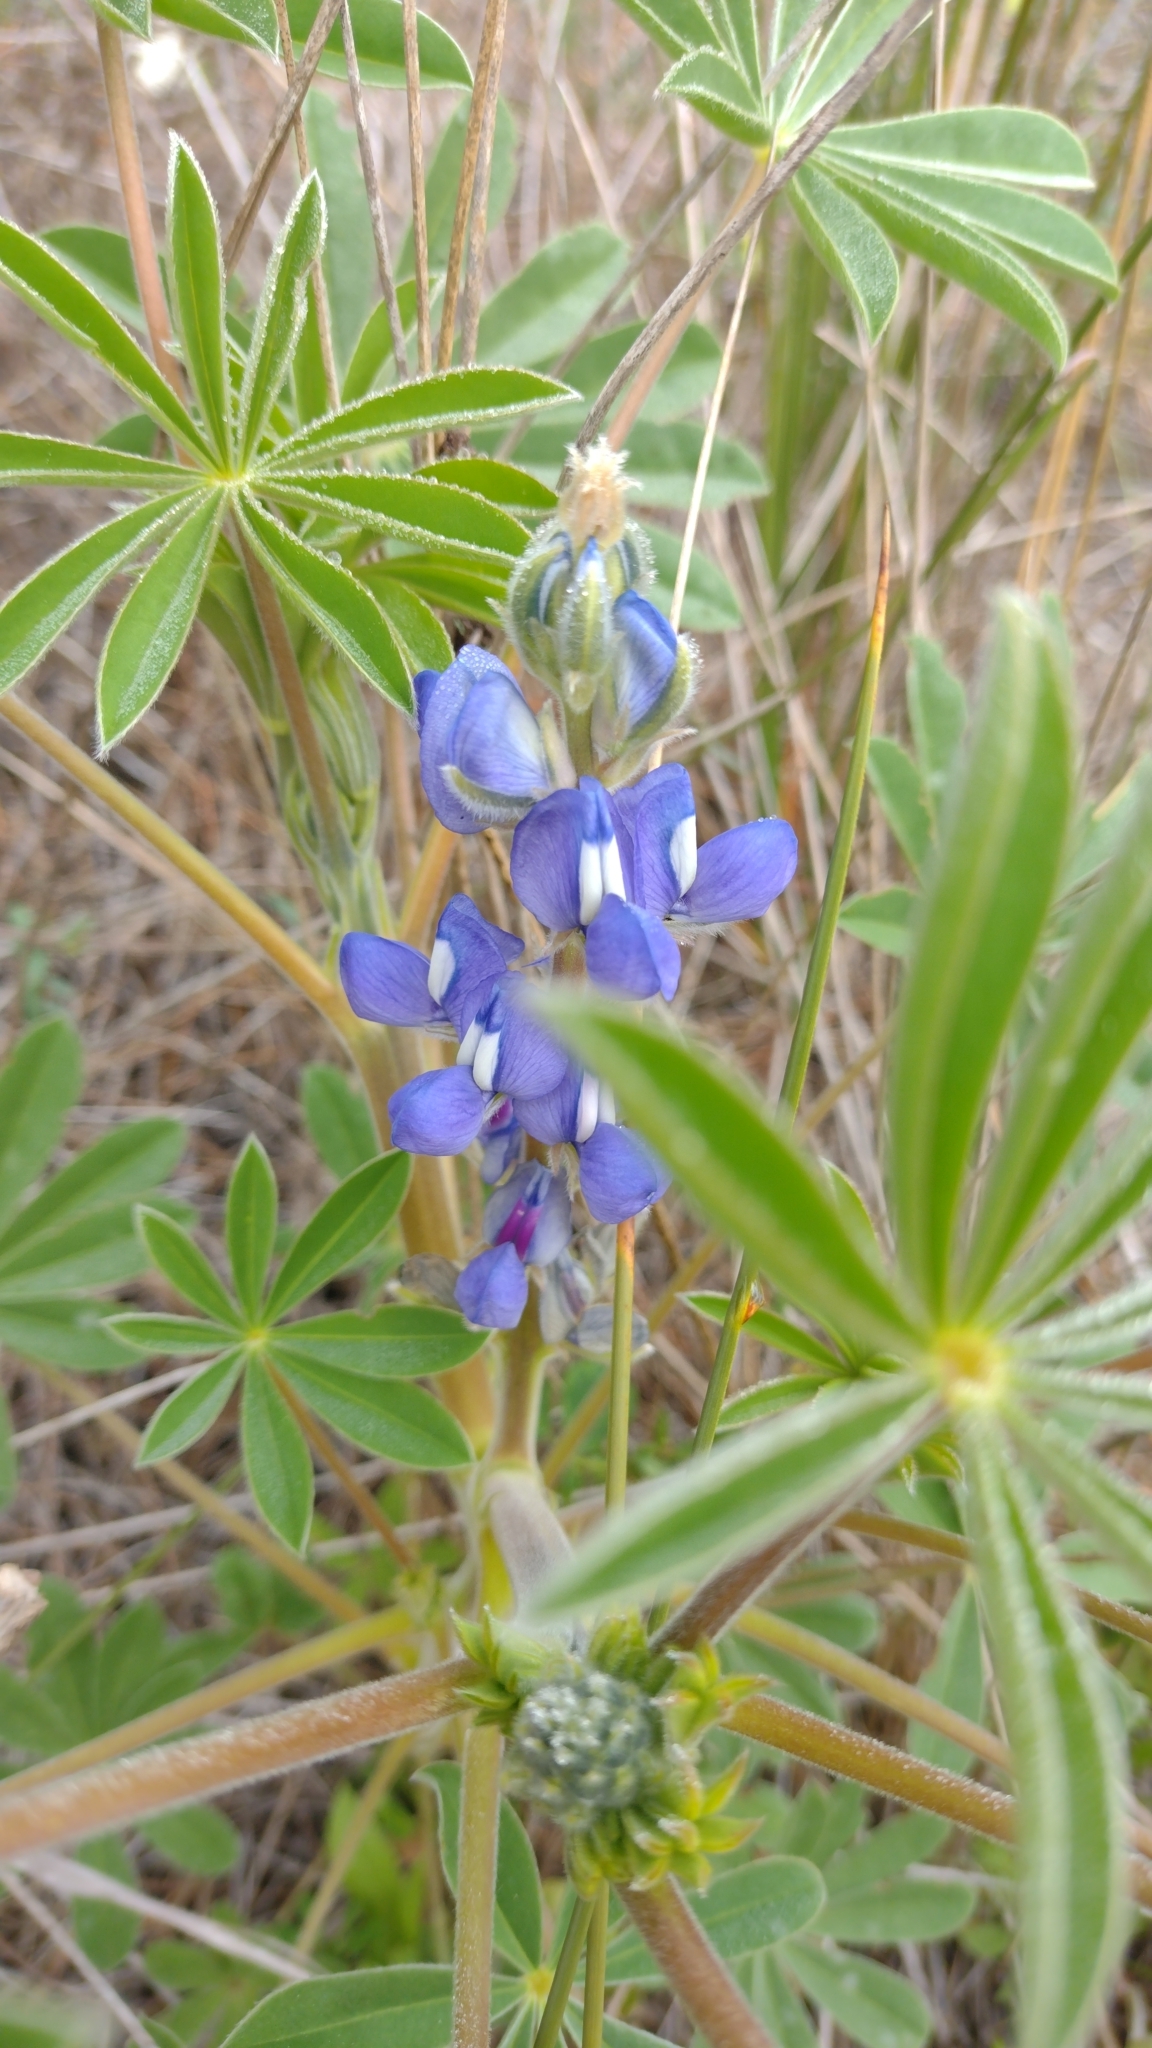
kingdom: Plantae
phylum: Tracheophyta
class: Magnoliopsida
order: Fabales
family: Fabaceae
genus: Lupinus
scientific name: Lupinus cosentinii
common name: Hairy blue lupin
